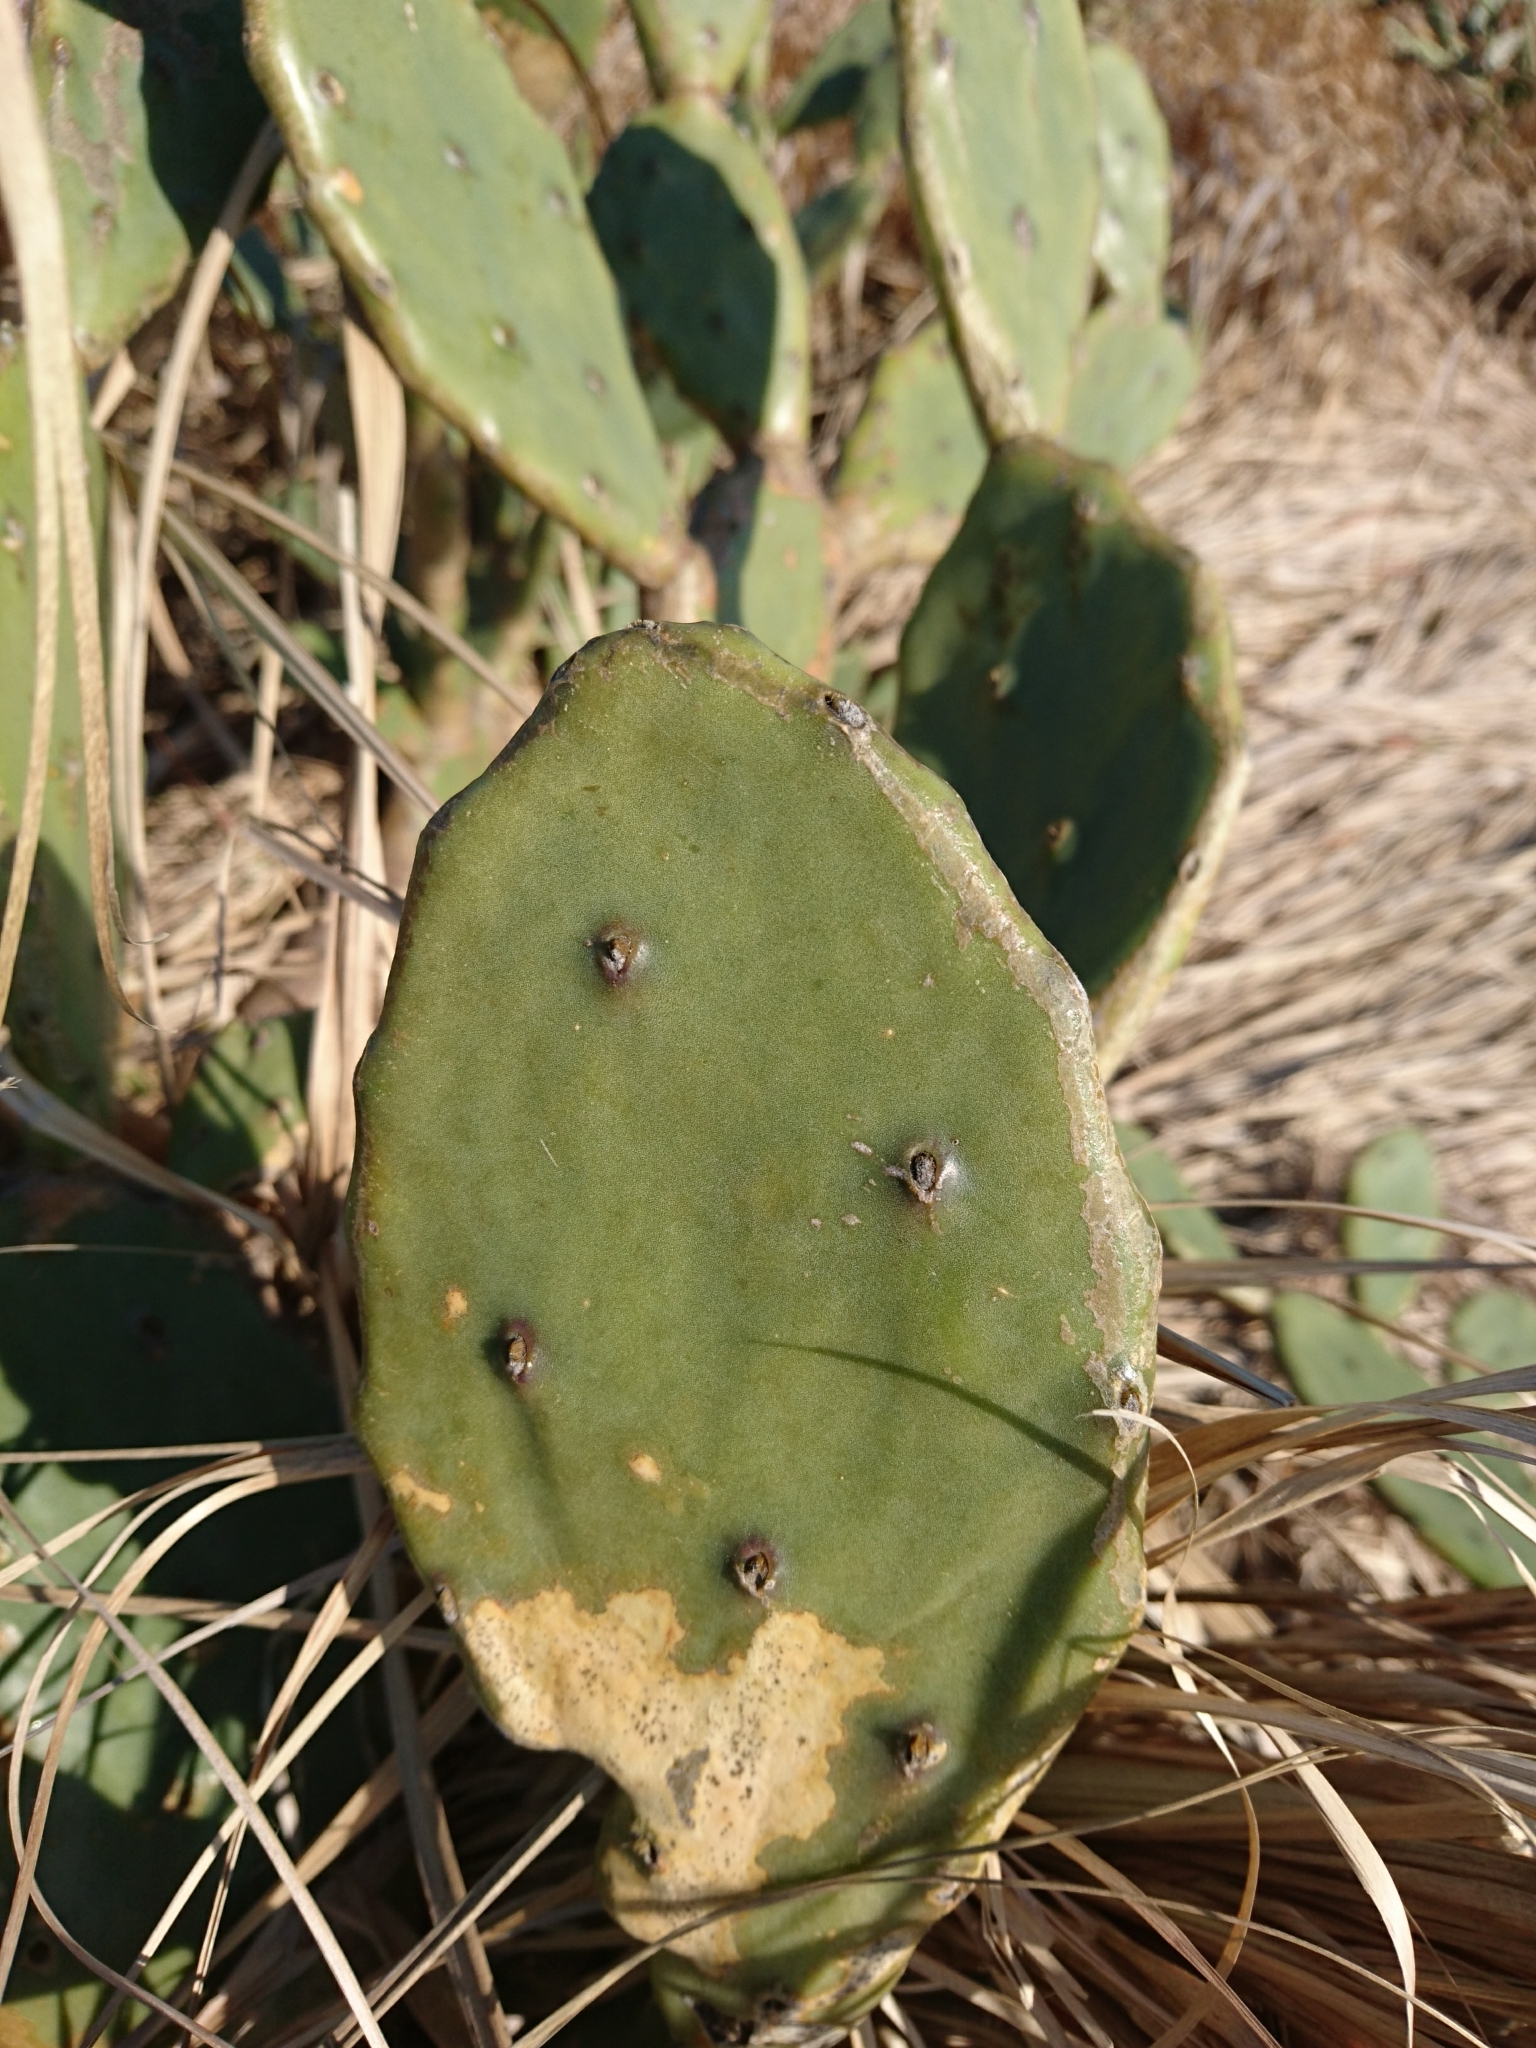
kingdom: Plantae
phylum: Tracheophyta
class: Magnoliopsida
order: Caryophyllales
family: Cactaceae
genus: Opuntia
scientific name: Opuntia stricta
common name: Erect pricklypear
